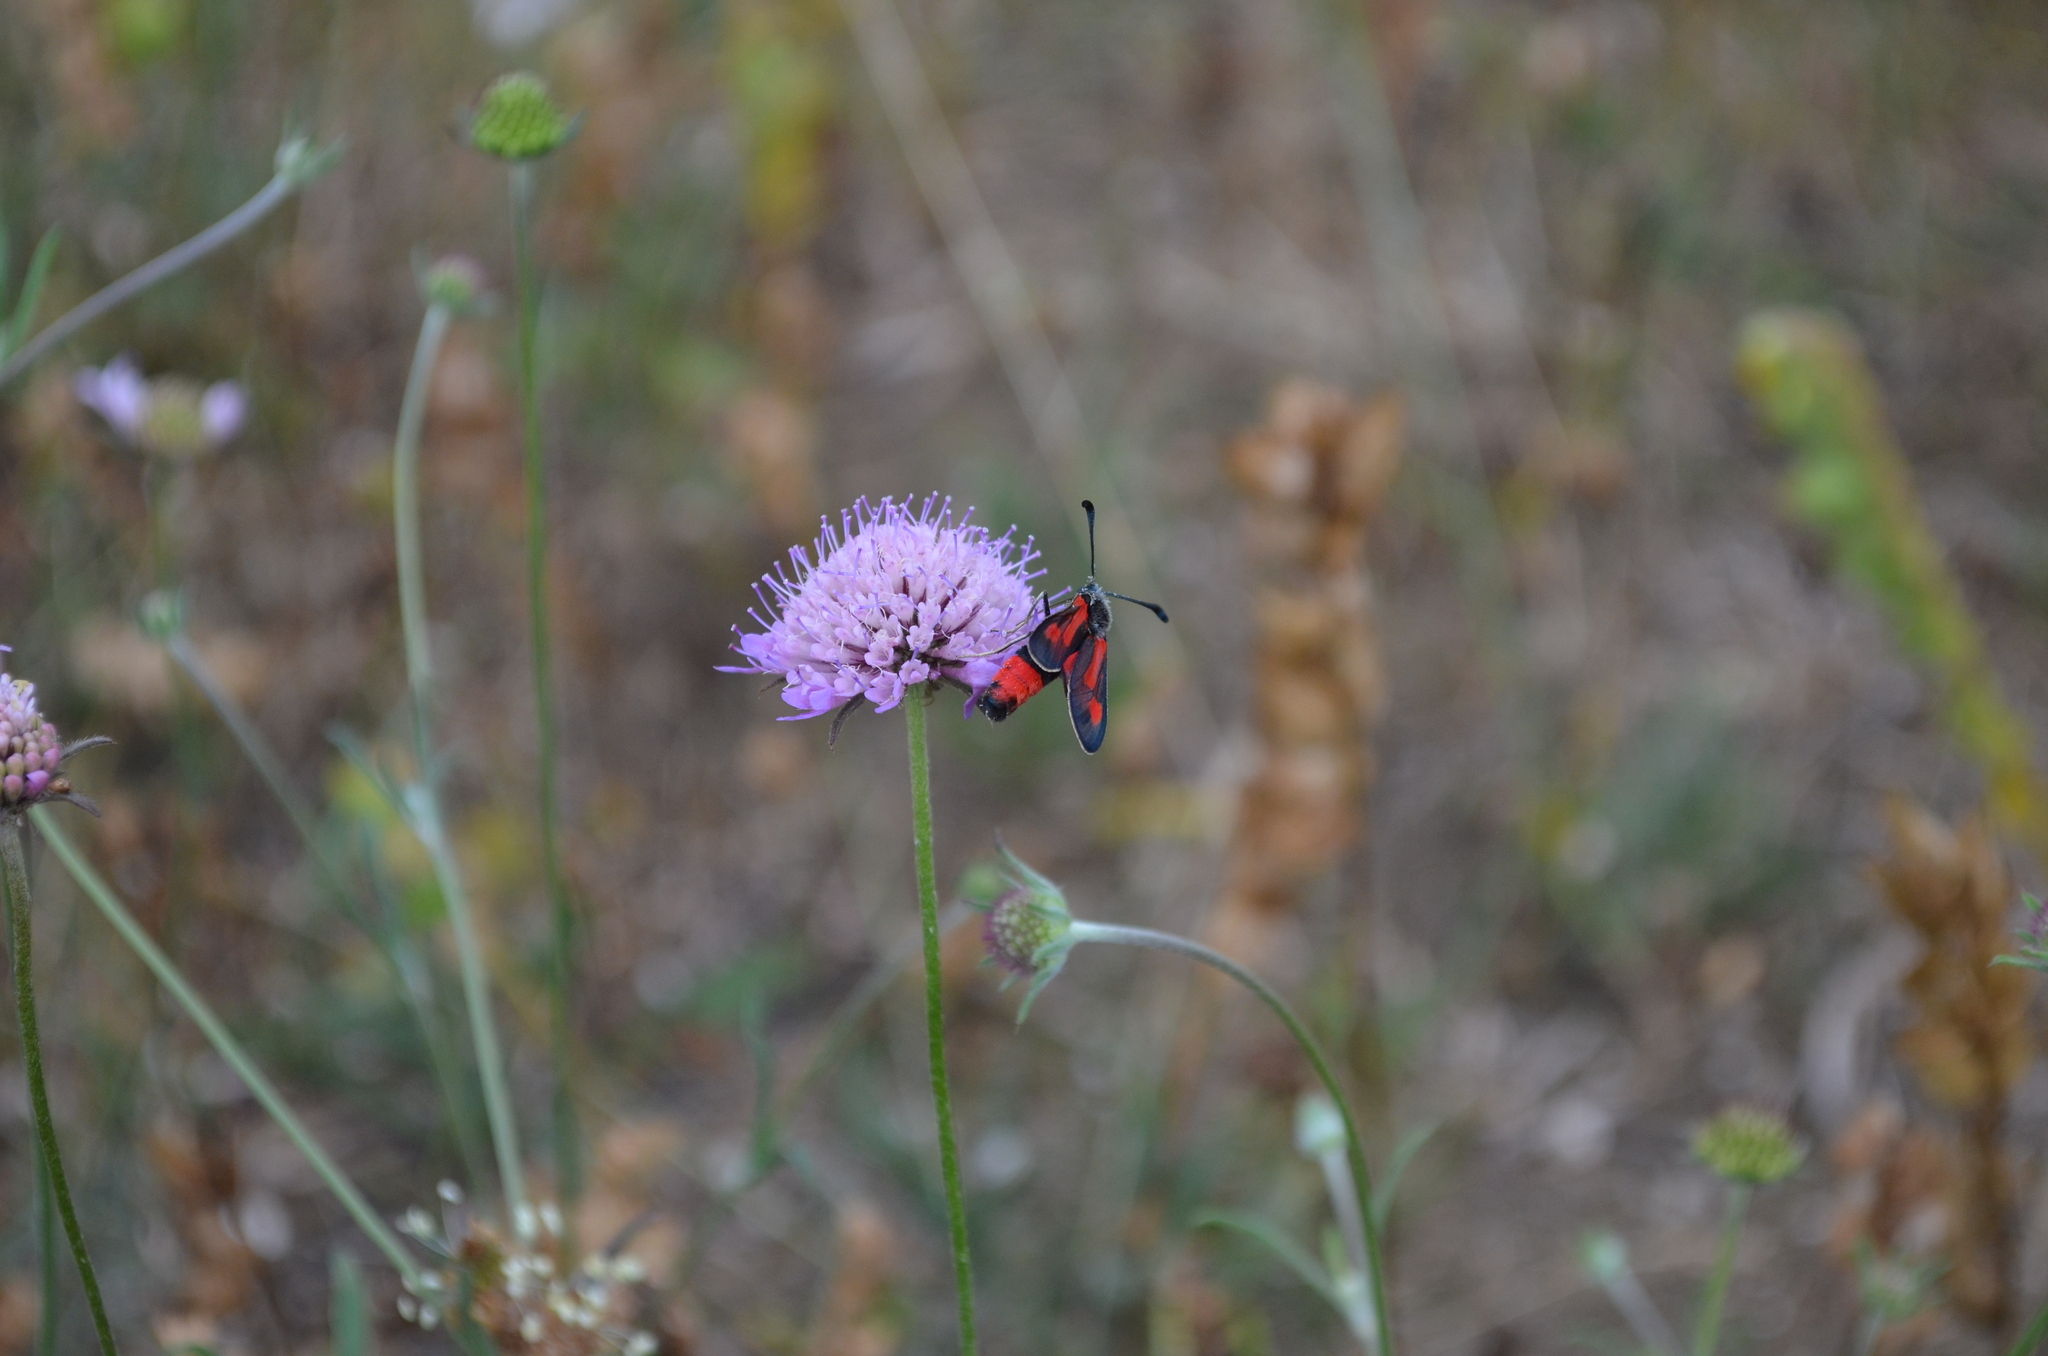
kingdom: Animalia
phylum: Arthropoda
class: Insecta
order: Lepidoptera
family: Zygaenidae
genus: Zygaena
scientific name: Zygaena sarpedon
